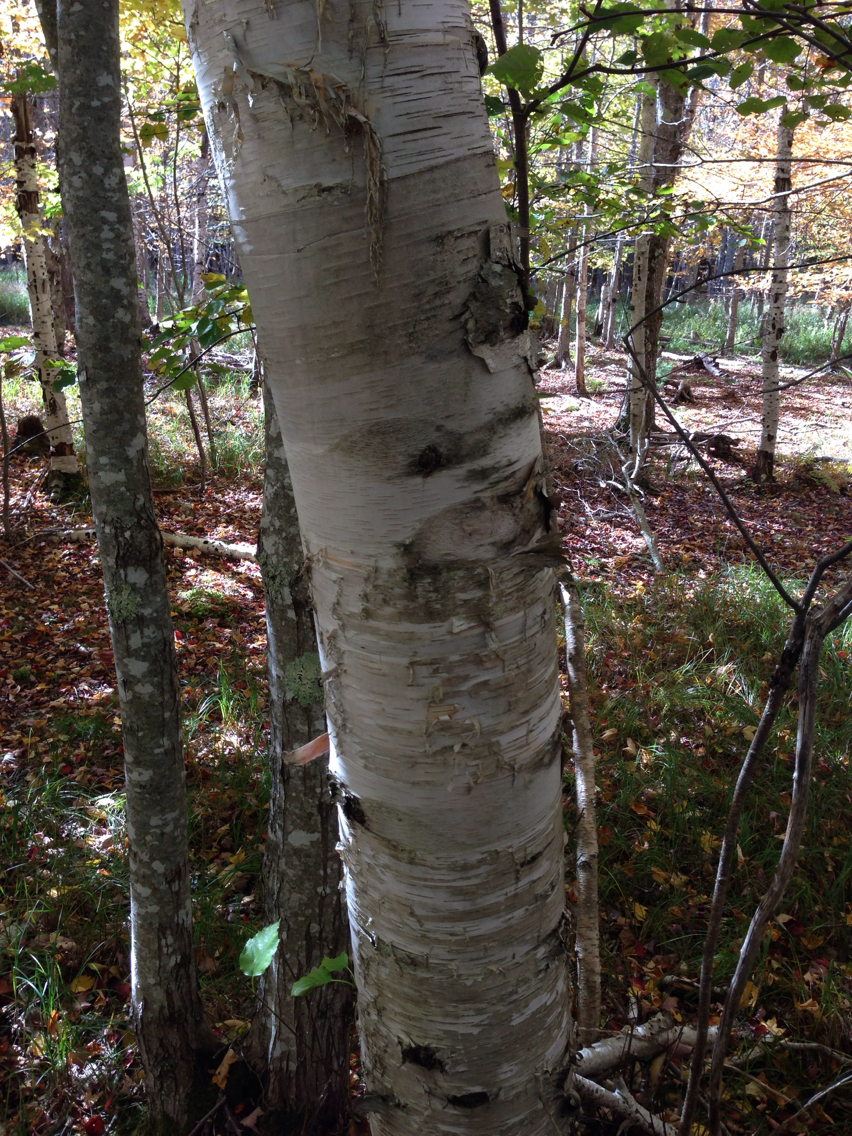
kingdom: Plantae
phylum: Tracheophyta
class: Magnoliopsida
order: Fagales
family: Betulaceae
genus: Betula
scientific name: Betula papyrifera
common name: Paper birch
